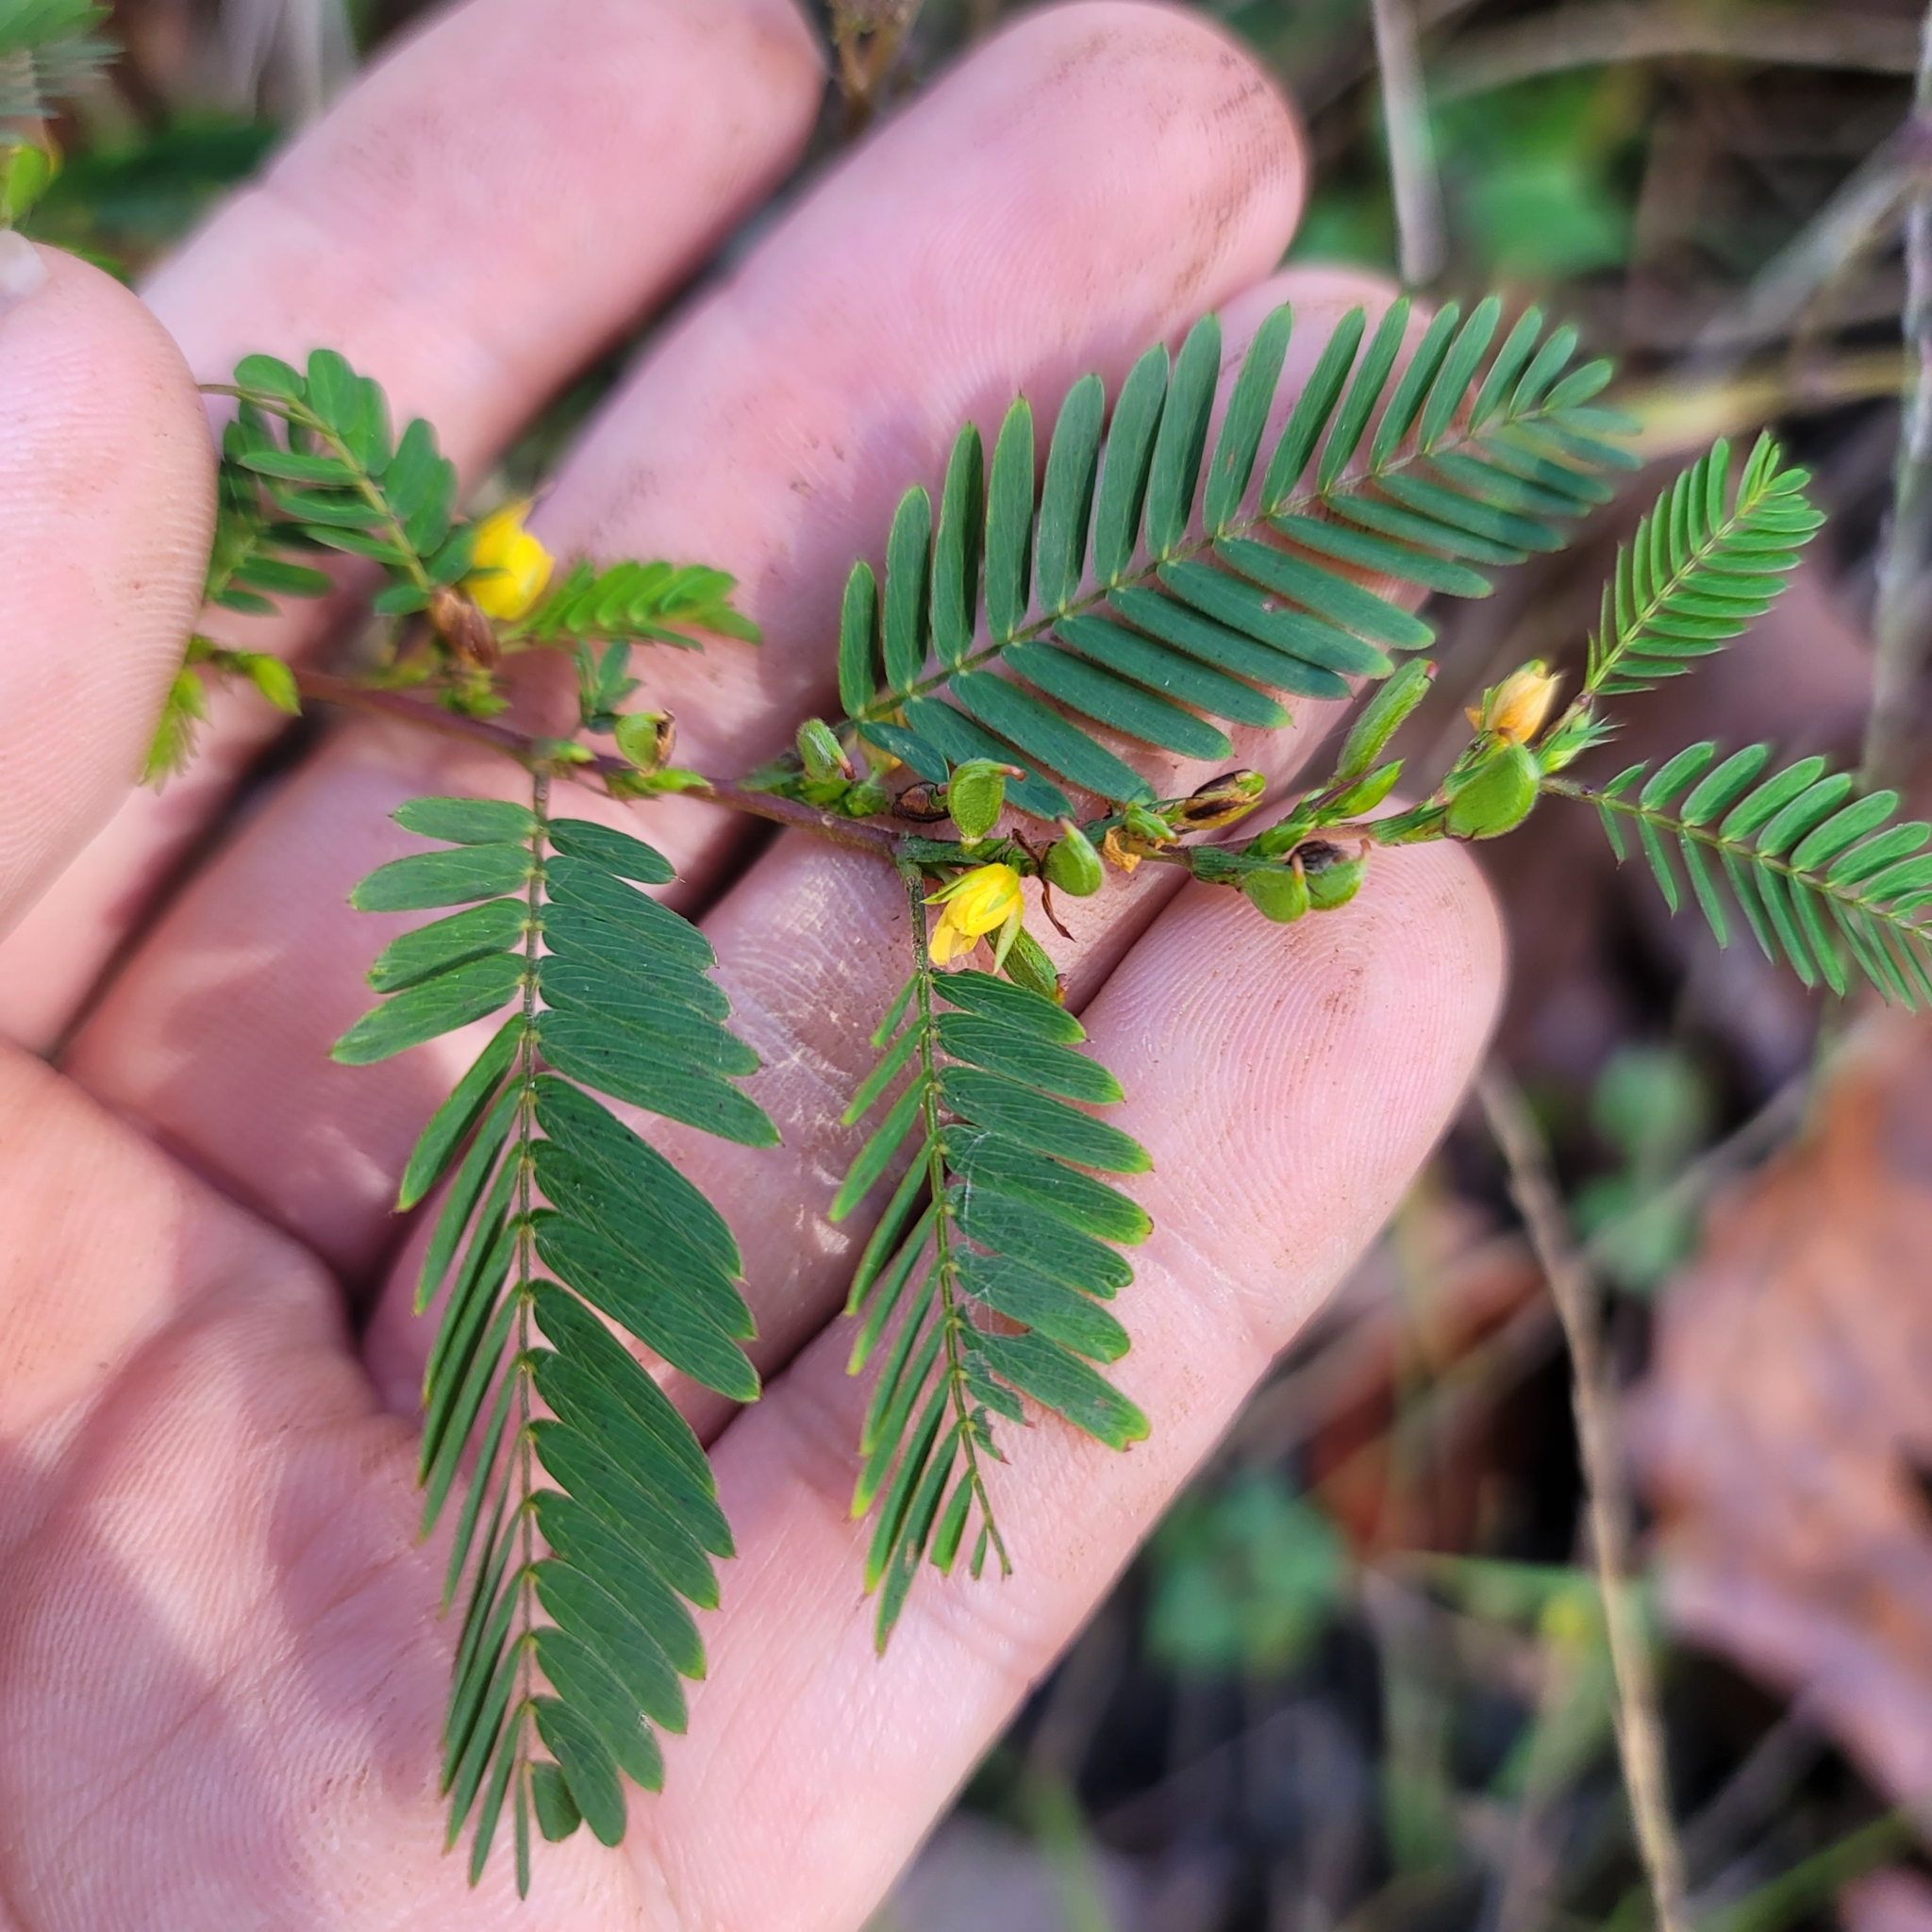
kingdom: Plantae
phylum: Tracheophyta
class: Magnoliopsida
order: Fabales
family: Fabaceae
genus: Chamaecrista
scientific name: Chamaecrista nictitans
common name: Sensitive cassia
